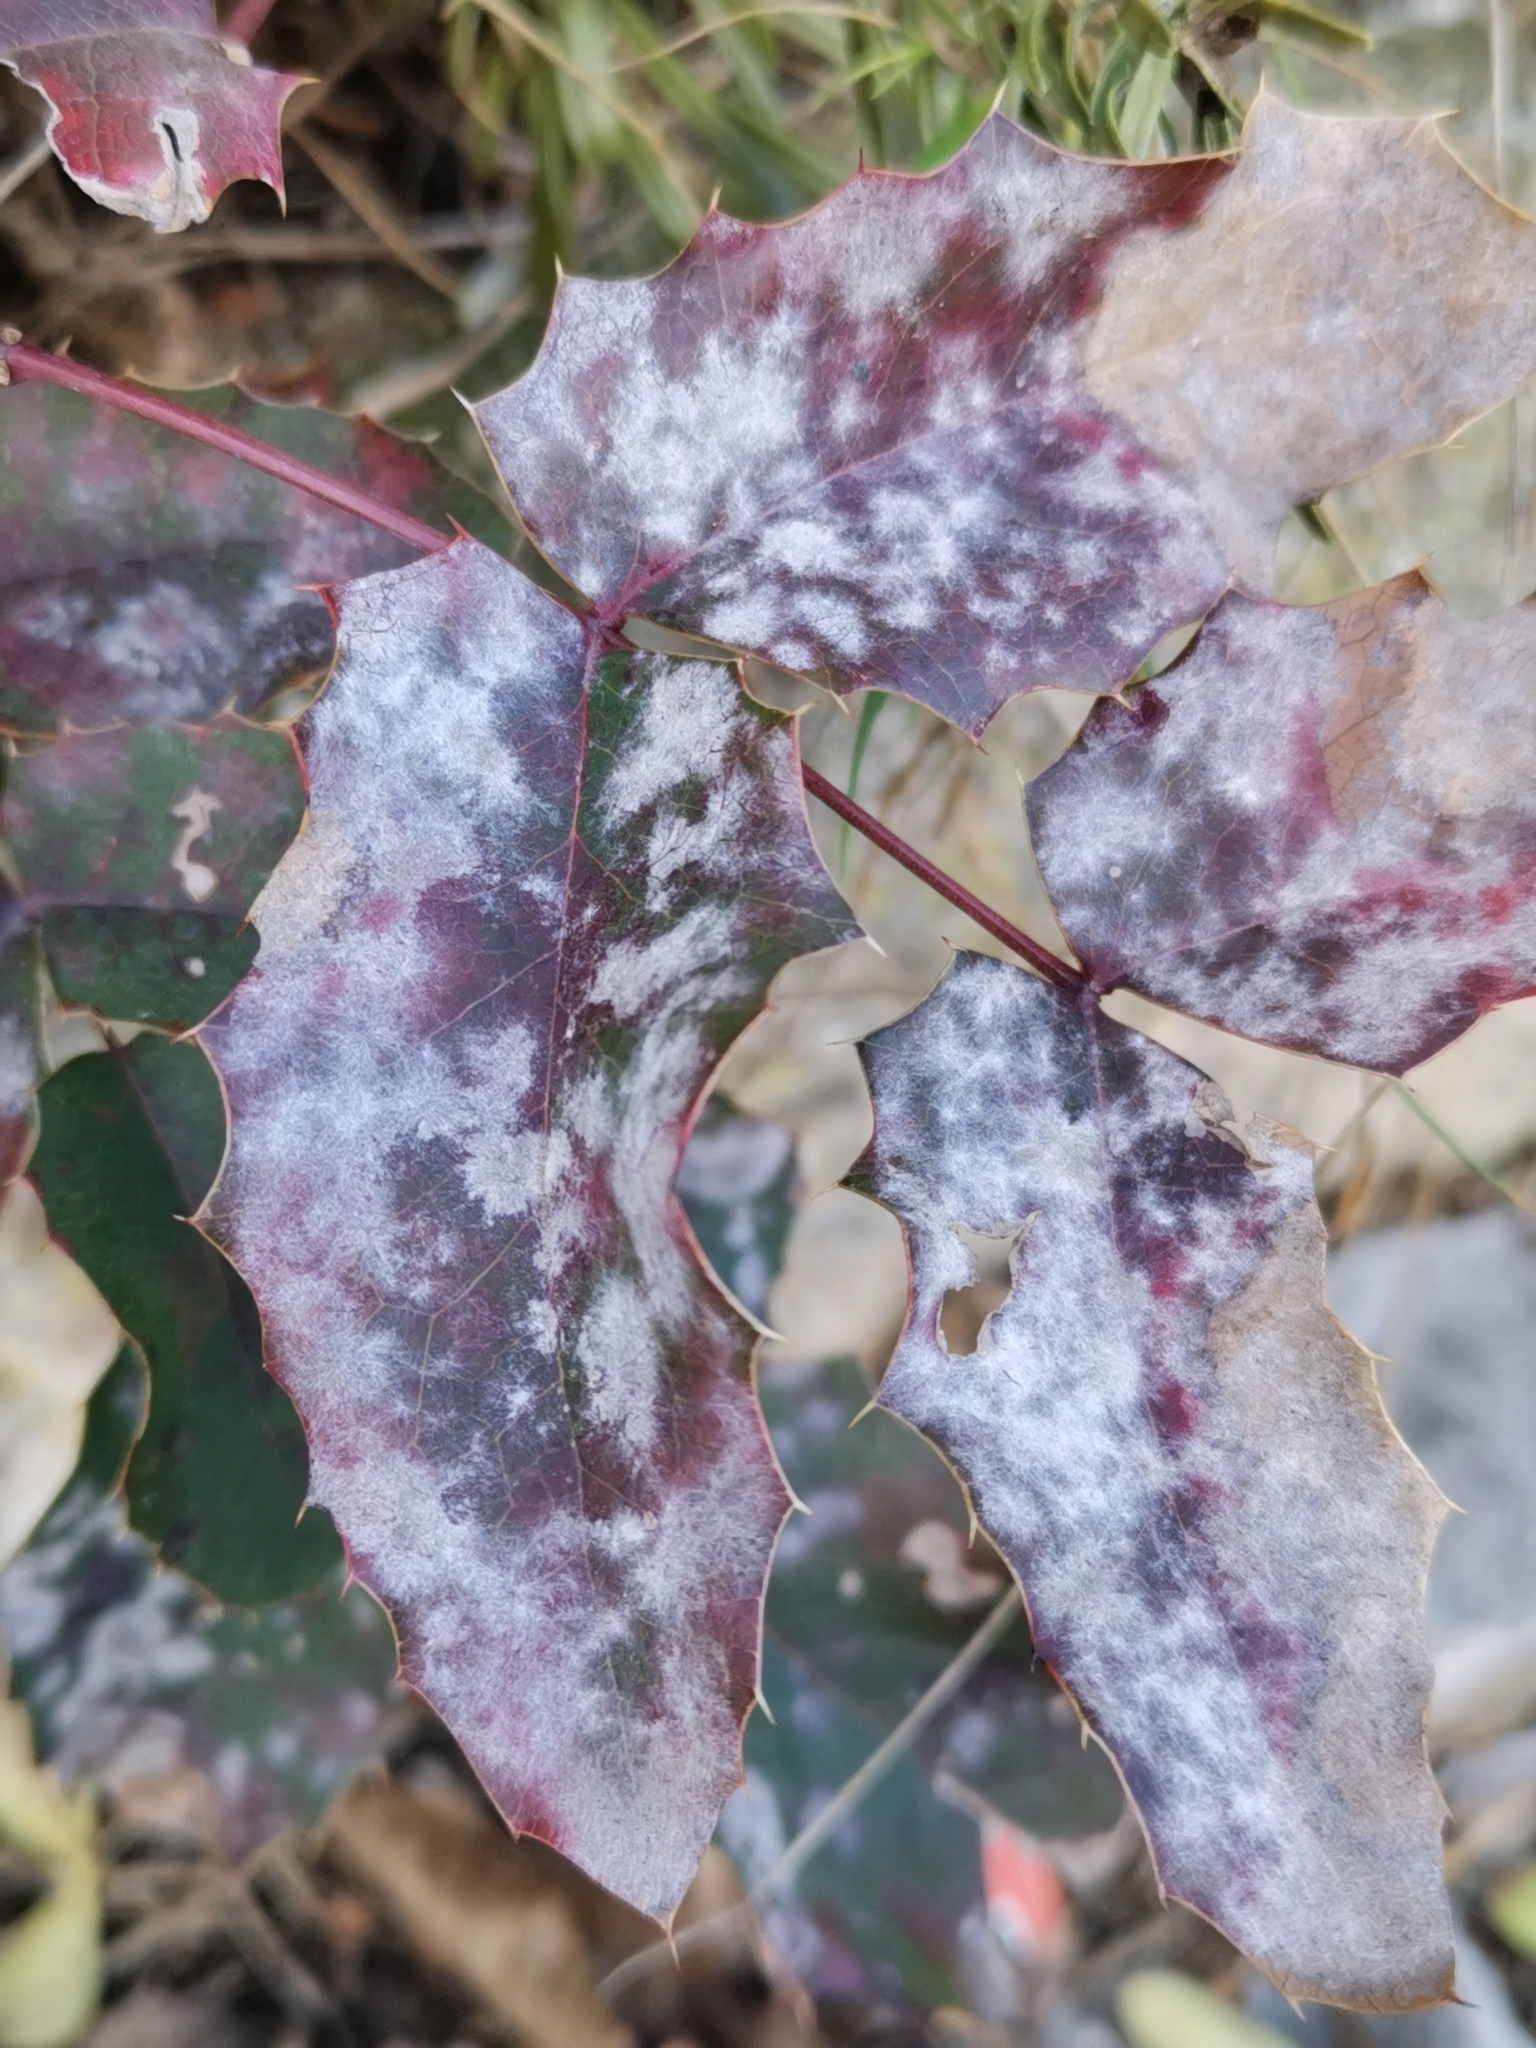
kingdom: Fungi
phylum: Ascomycota
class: Leotiomycetes
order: Helotiales
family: Erysiphaceae
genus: Erysiphe
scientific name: Erysiphe berberidis
